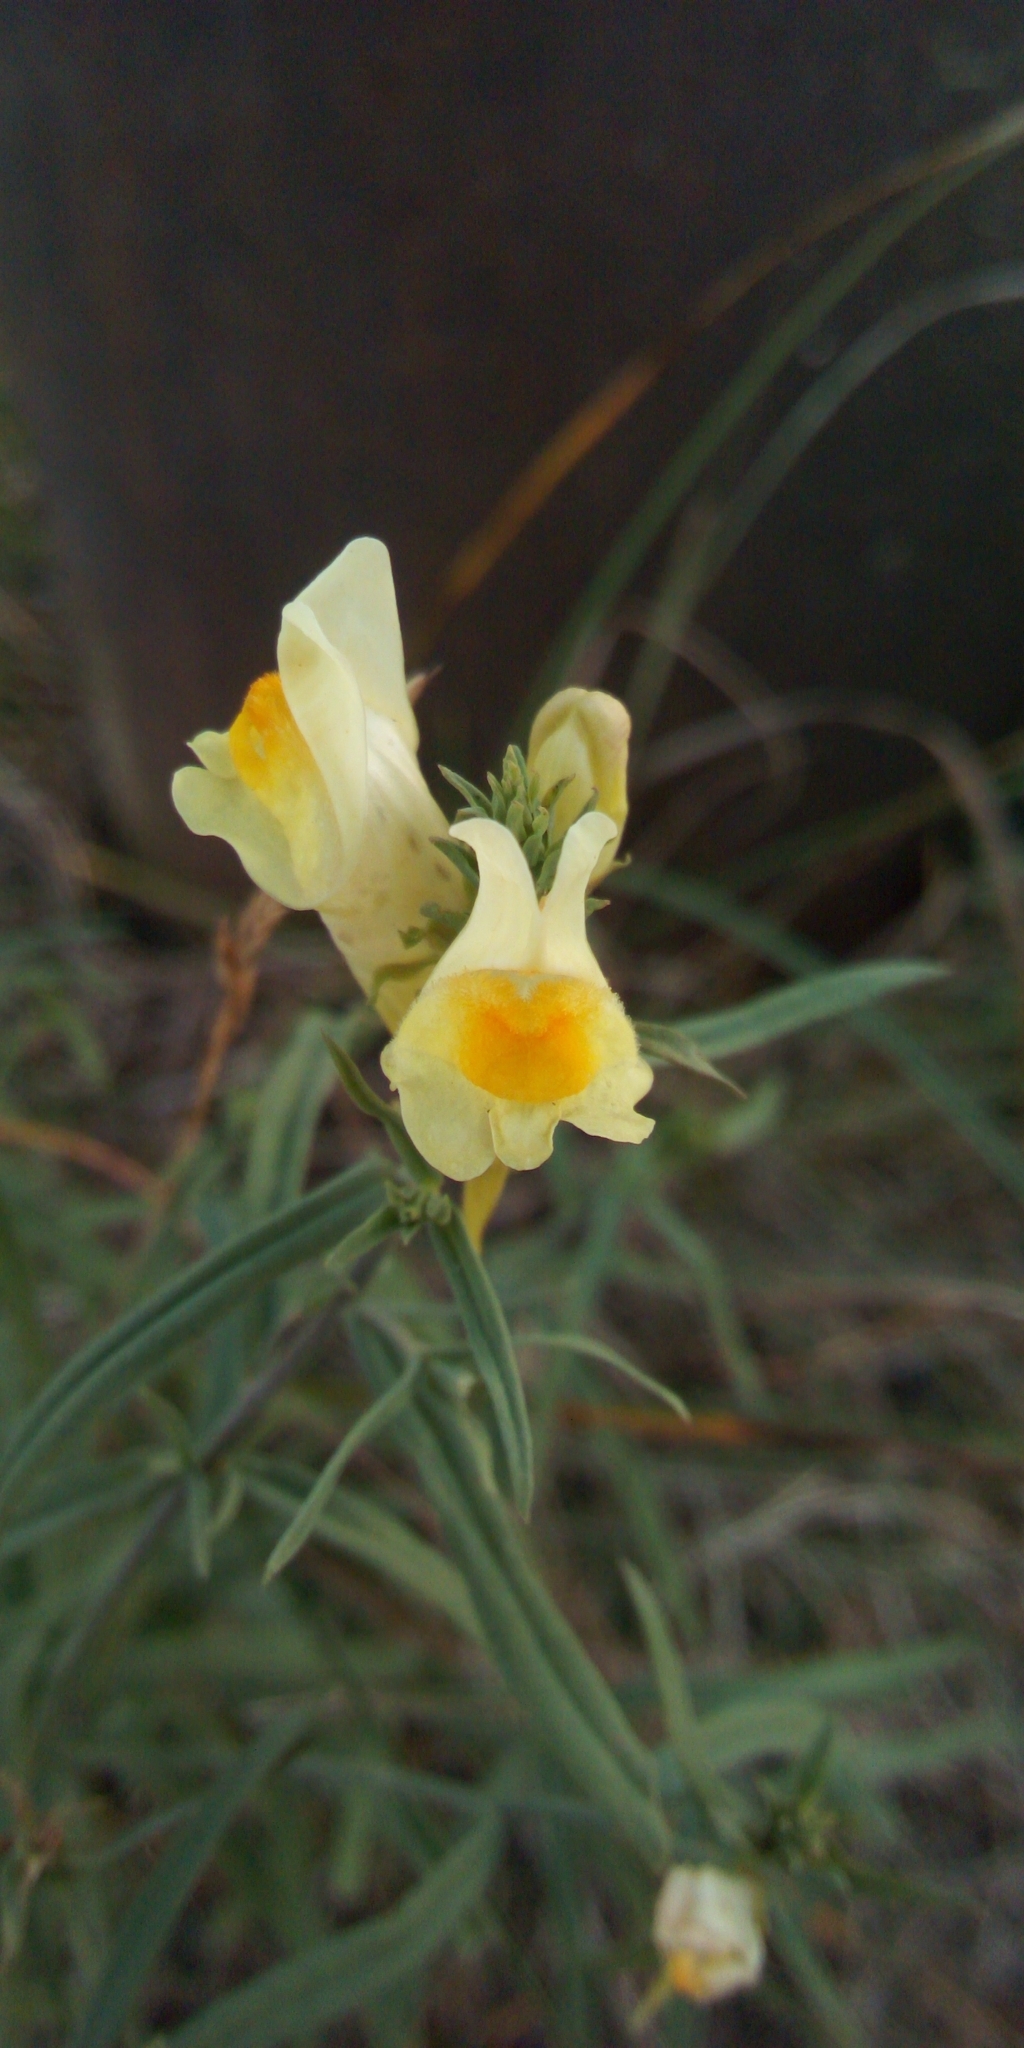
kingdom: Plantae
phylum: Tracheophyta
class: Magnoliopsida
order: Lamiales
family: Plantaginaceae
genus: Linaria
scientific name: Linaria vulgaris
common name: Butter and eggs
